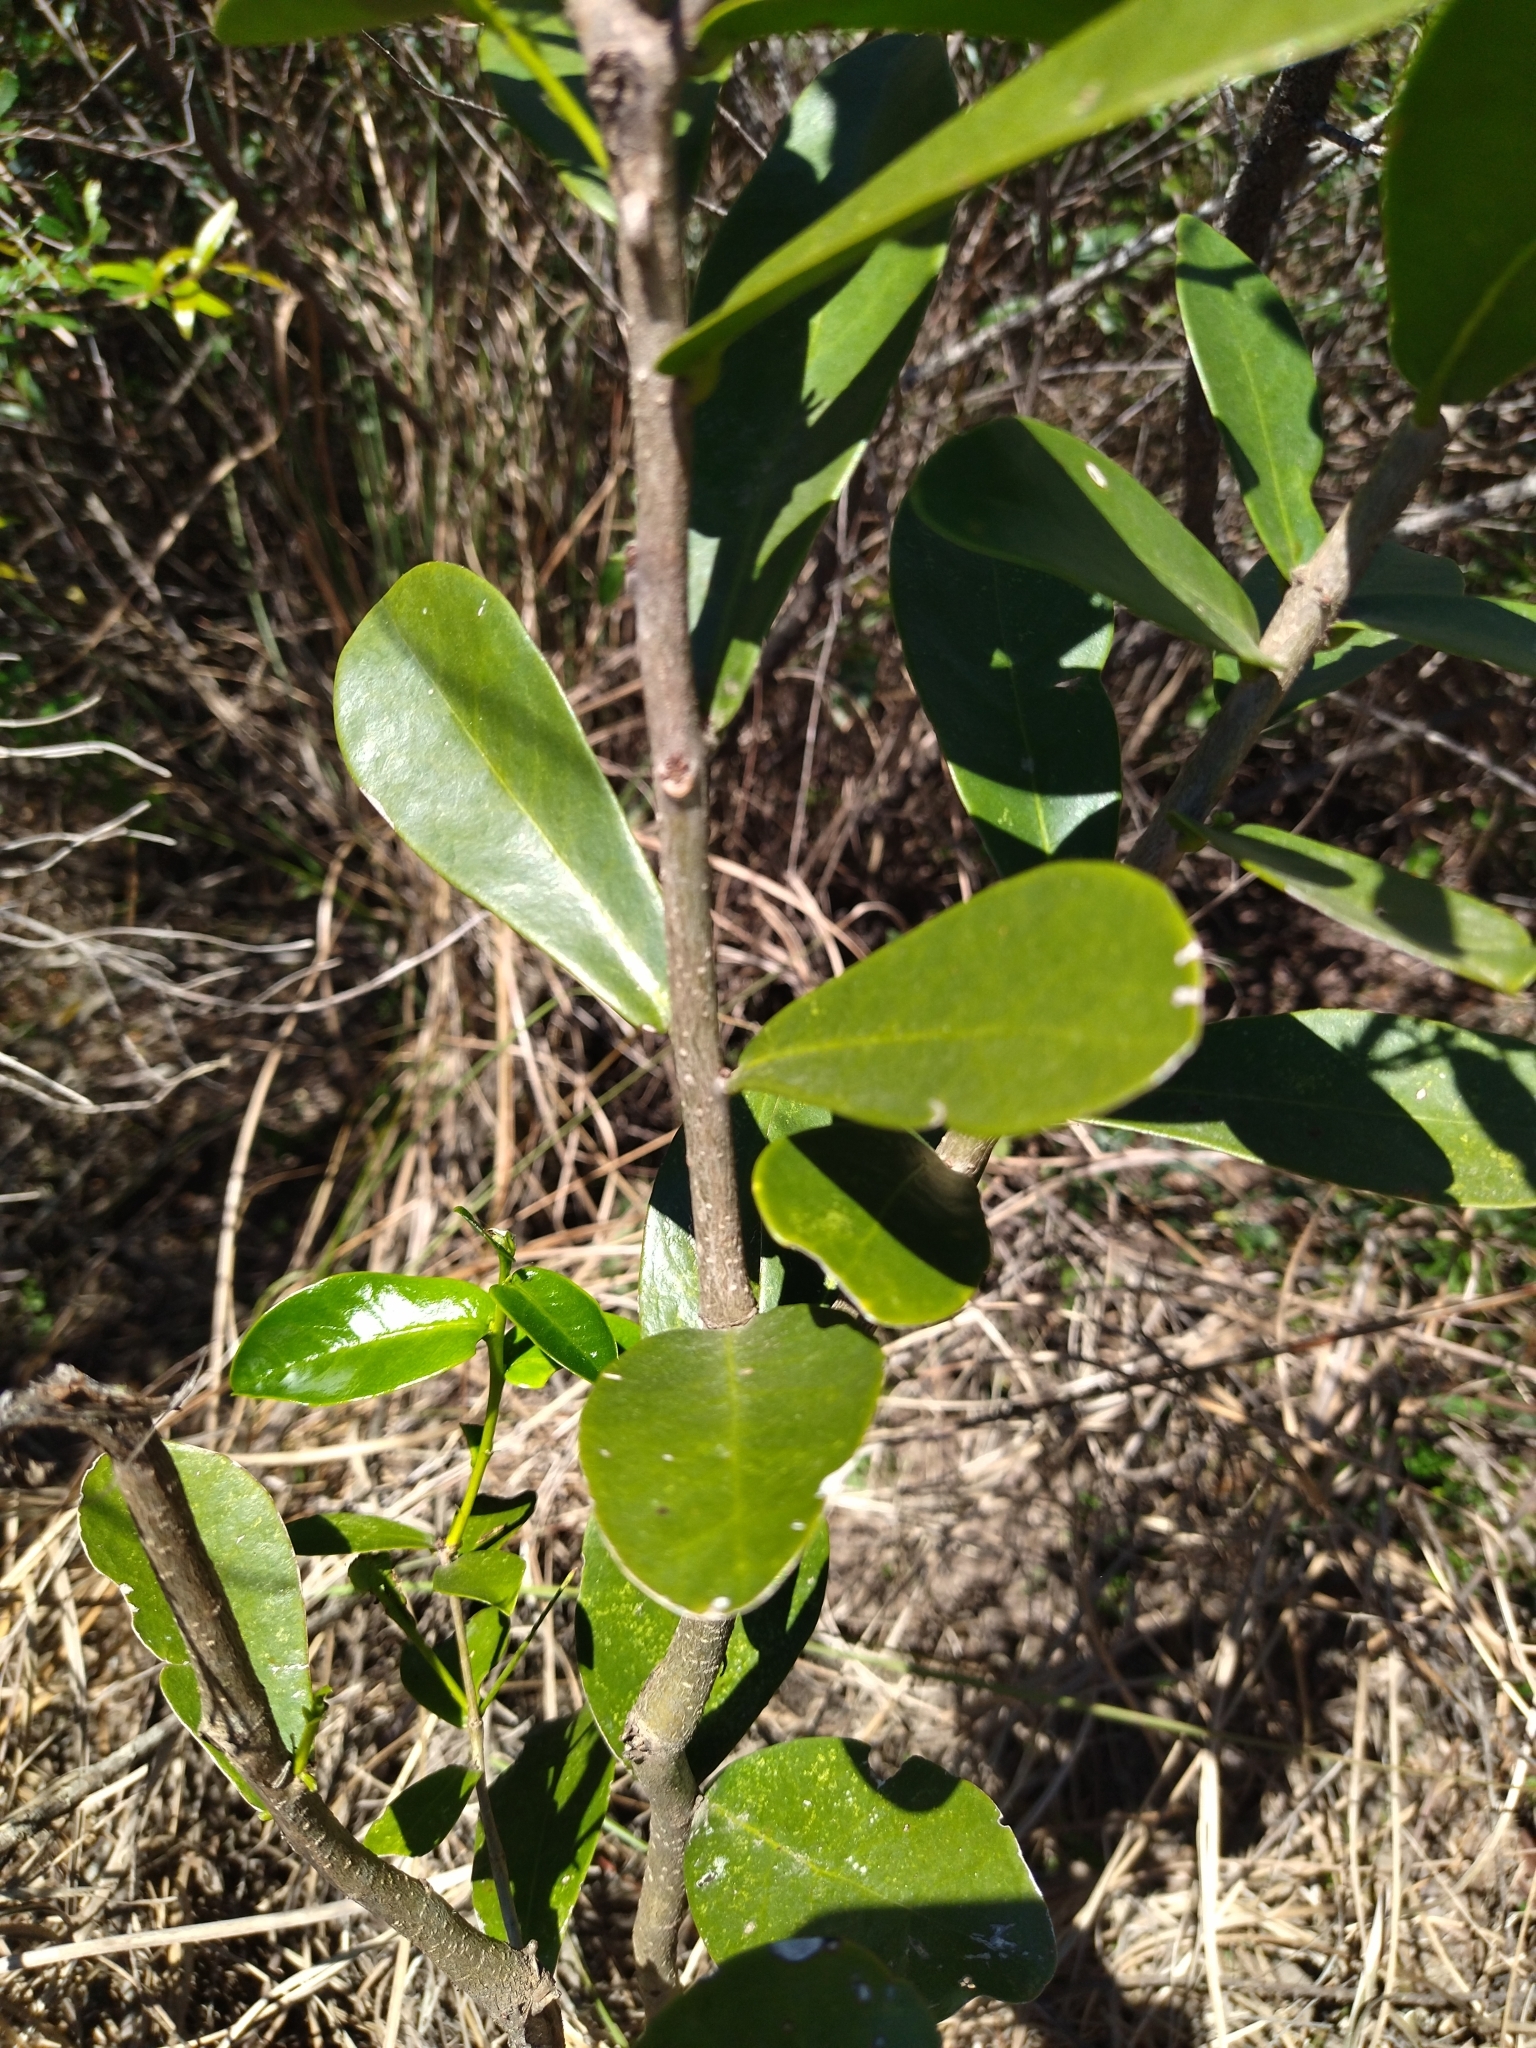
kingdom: Plantae
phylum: Tracheophyta
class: Magnoliopsida
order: Malvales
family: Thymelaeaceae
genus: Daphnopsis
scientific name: Daphnopsis racemosa
